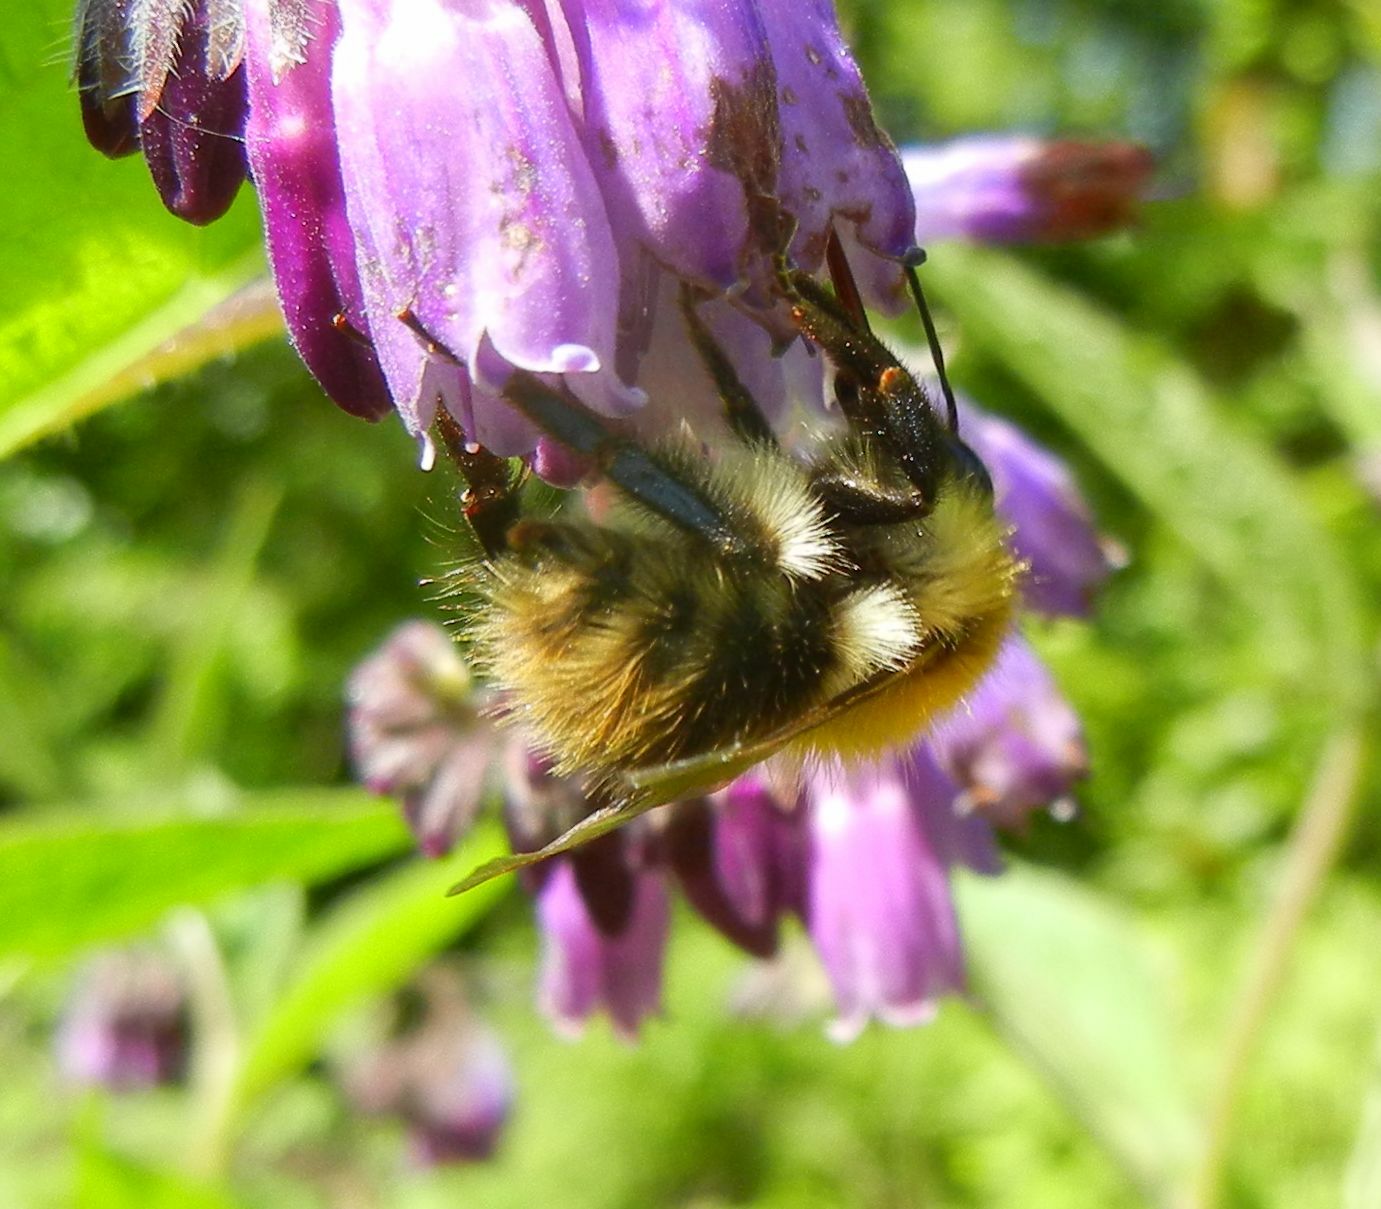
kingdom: Animalia
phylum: Arthropoda
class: Insecta
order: Hymenoptera
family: Apidae
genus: Bombus
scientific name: Bombus pascuorum
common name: Common carder bee
